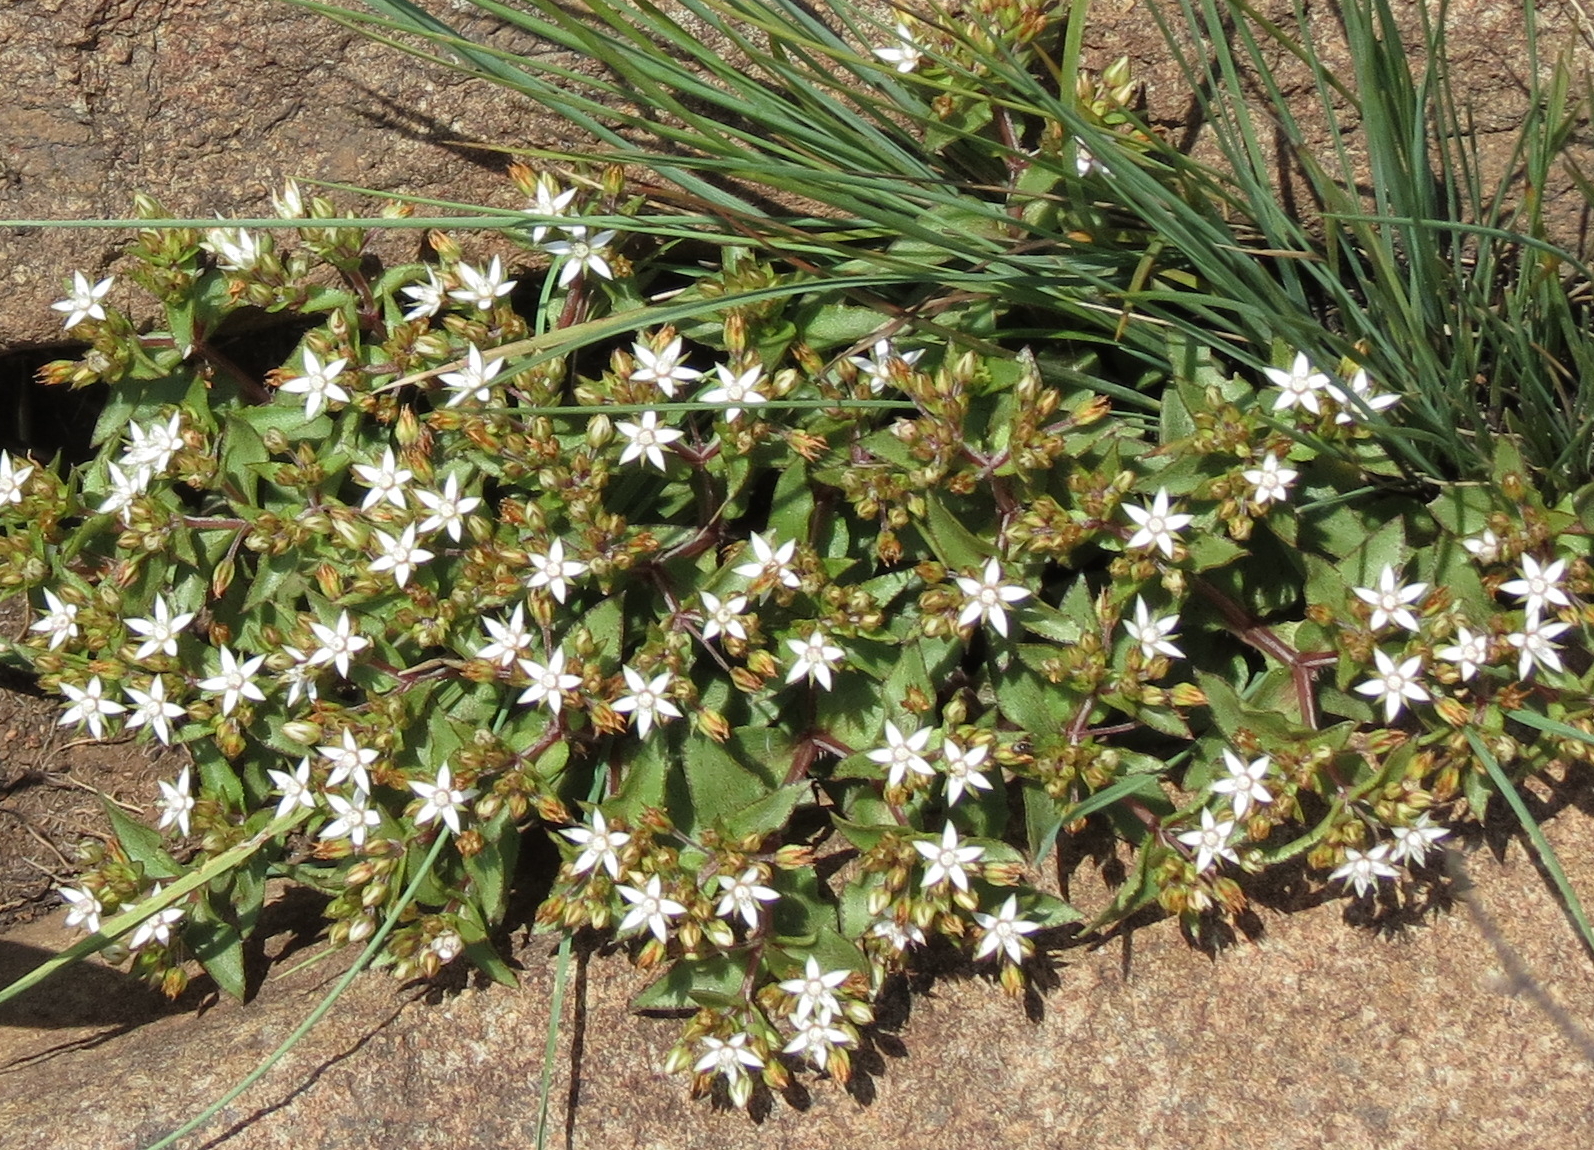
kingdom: Plantae
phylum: Tracheophyta
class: Magnoliopsida
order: Saxifragales
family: Crassulaceae
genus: Crassula
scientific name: Crassula pellucida
